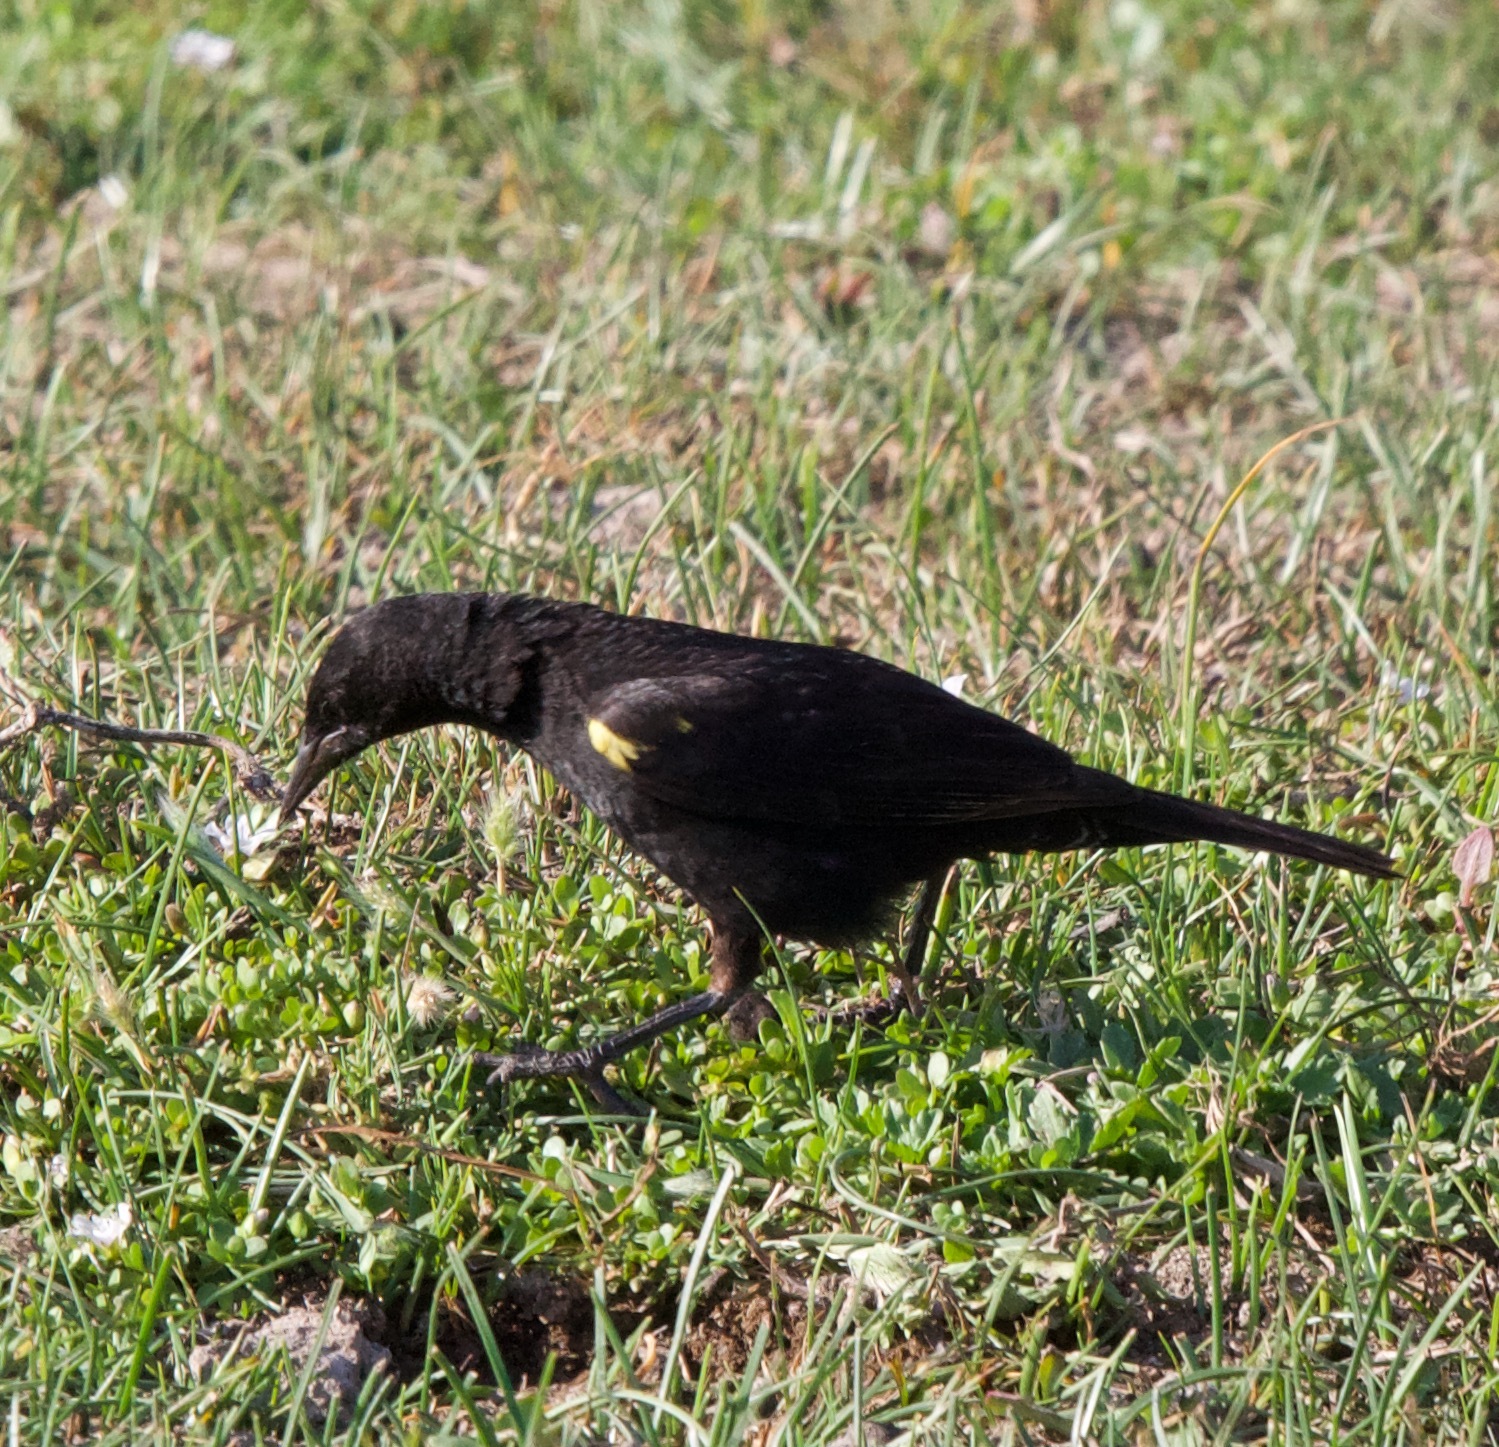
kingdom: Animalia
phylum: Chordata
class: Aves
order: Passeriformes
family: Icteridae
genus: Agelasticus
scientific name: Agelasticus thilius
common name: Yellow-winged blackbird
